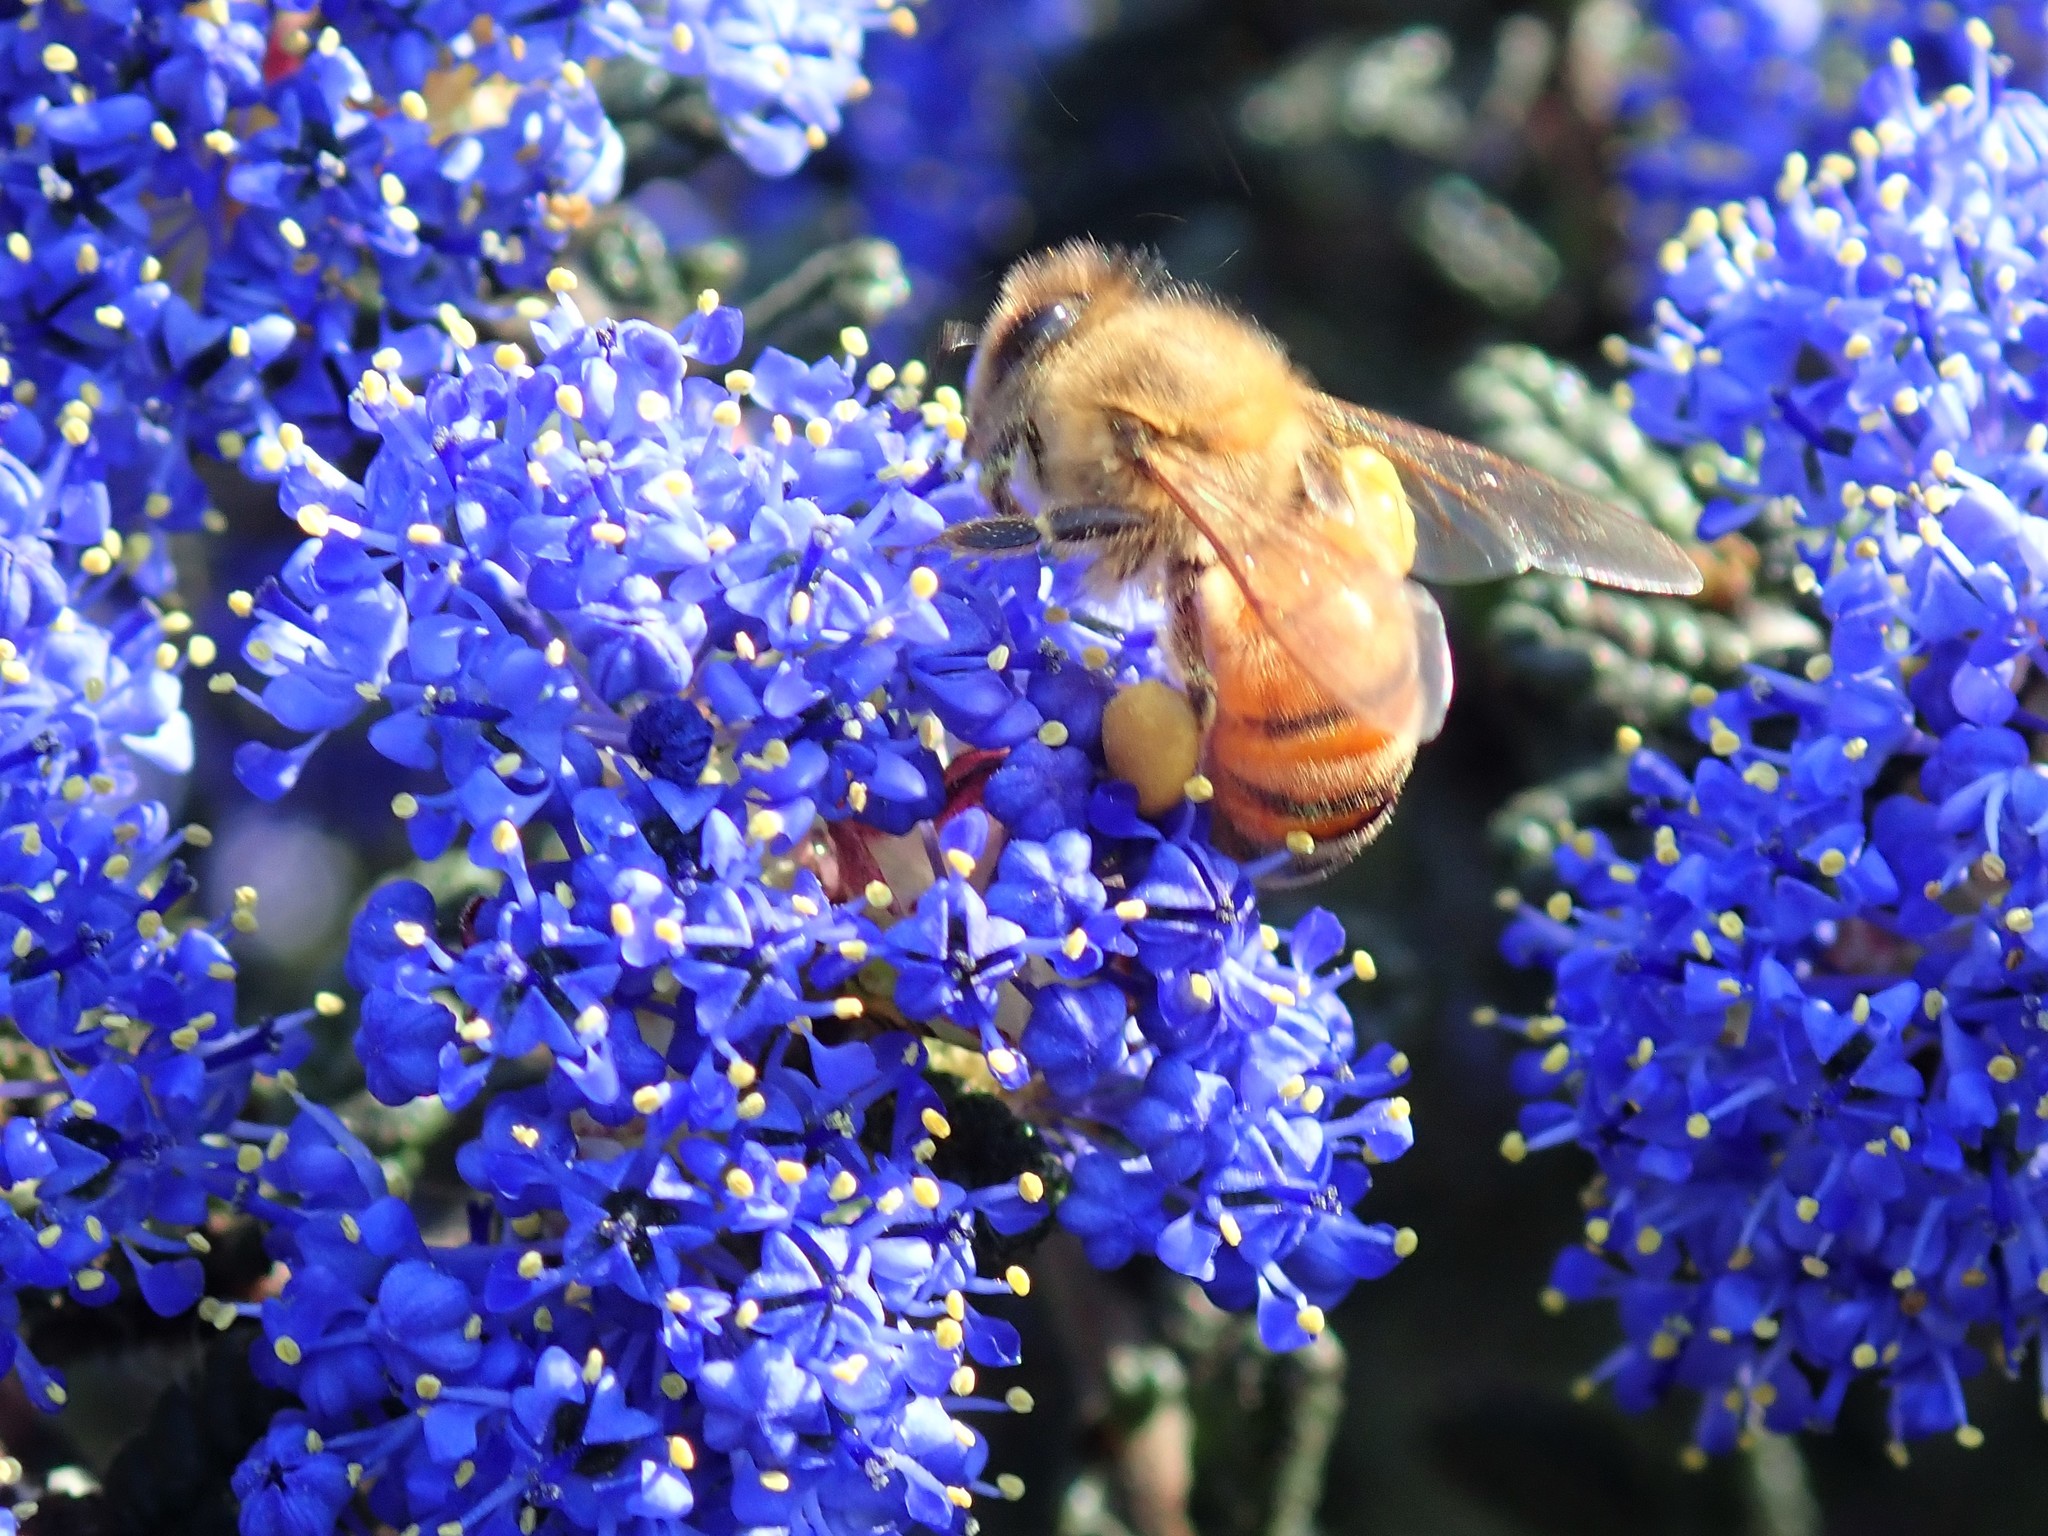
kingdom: Animalia
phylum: Arthropoda
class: Insecta
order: Hymenoptera
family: Apidae
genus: Apis
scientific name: Apis mellifera
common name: Honey bee
